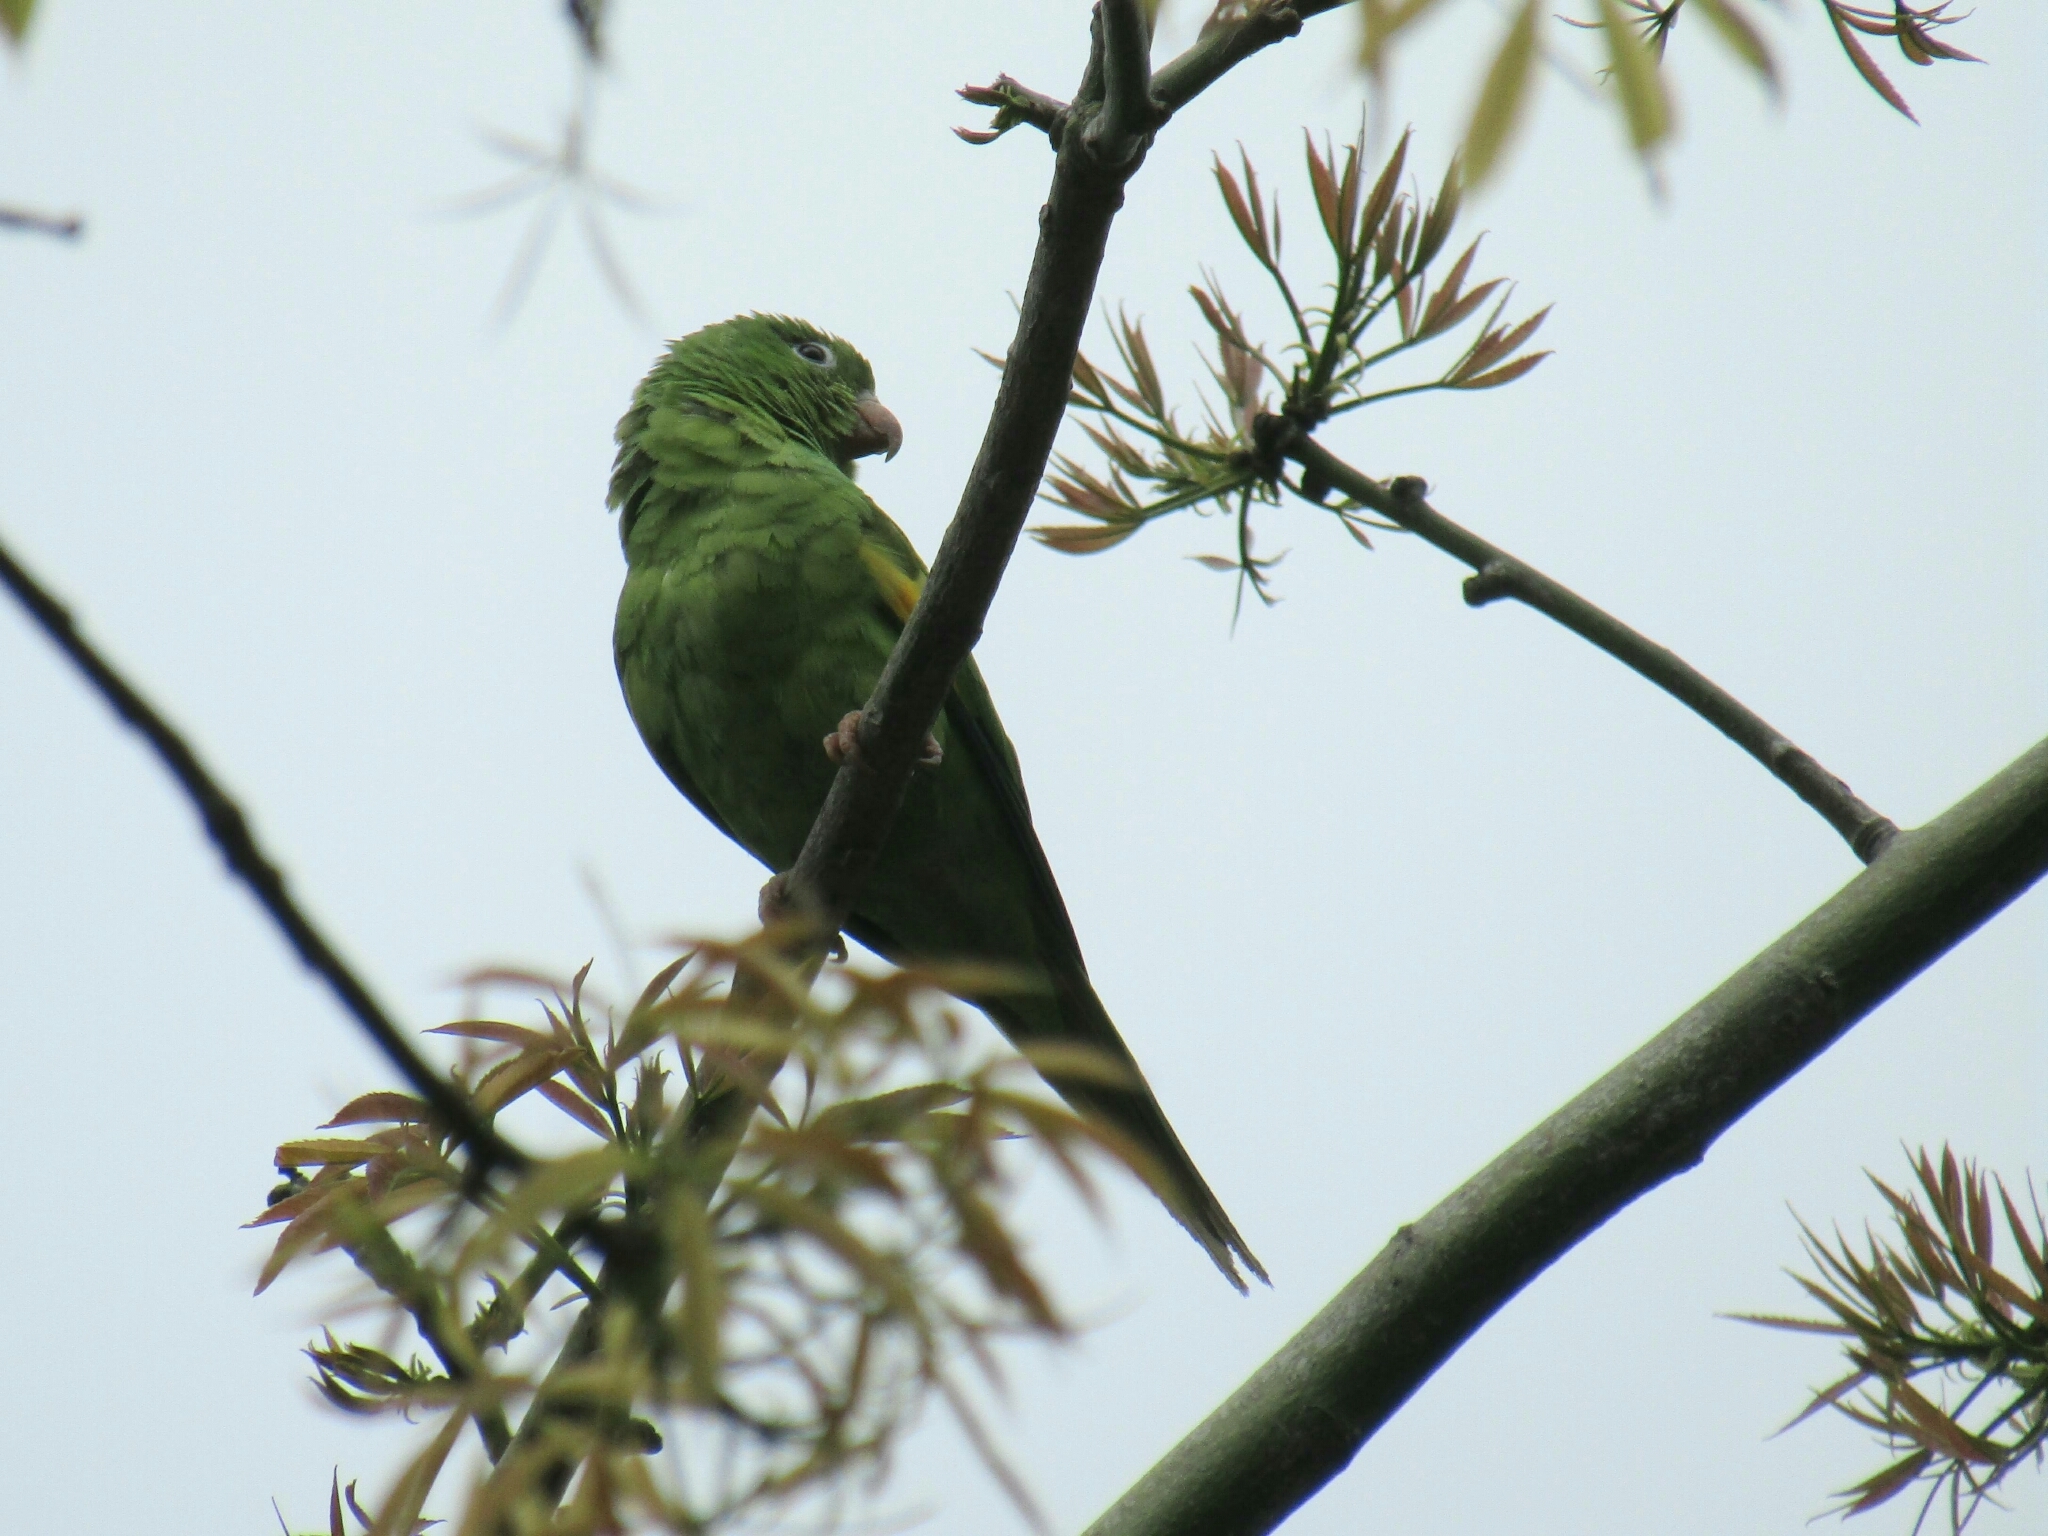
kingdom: Animalia
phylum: Chordata
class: Aves
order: Psittaciformes
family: Psittacidae
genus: Brotogeris
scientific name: Brotogeris chiriri
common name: Yellow-chevroned parakeet
